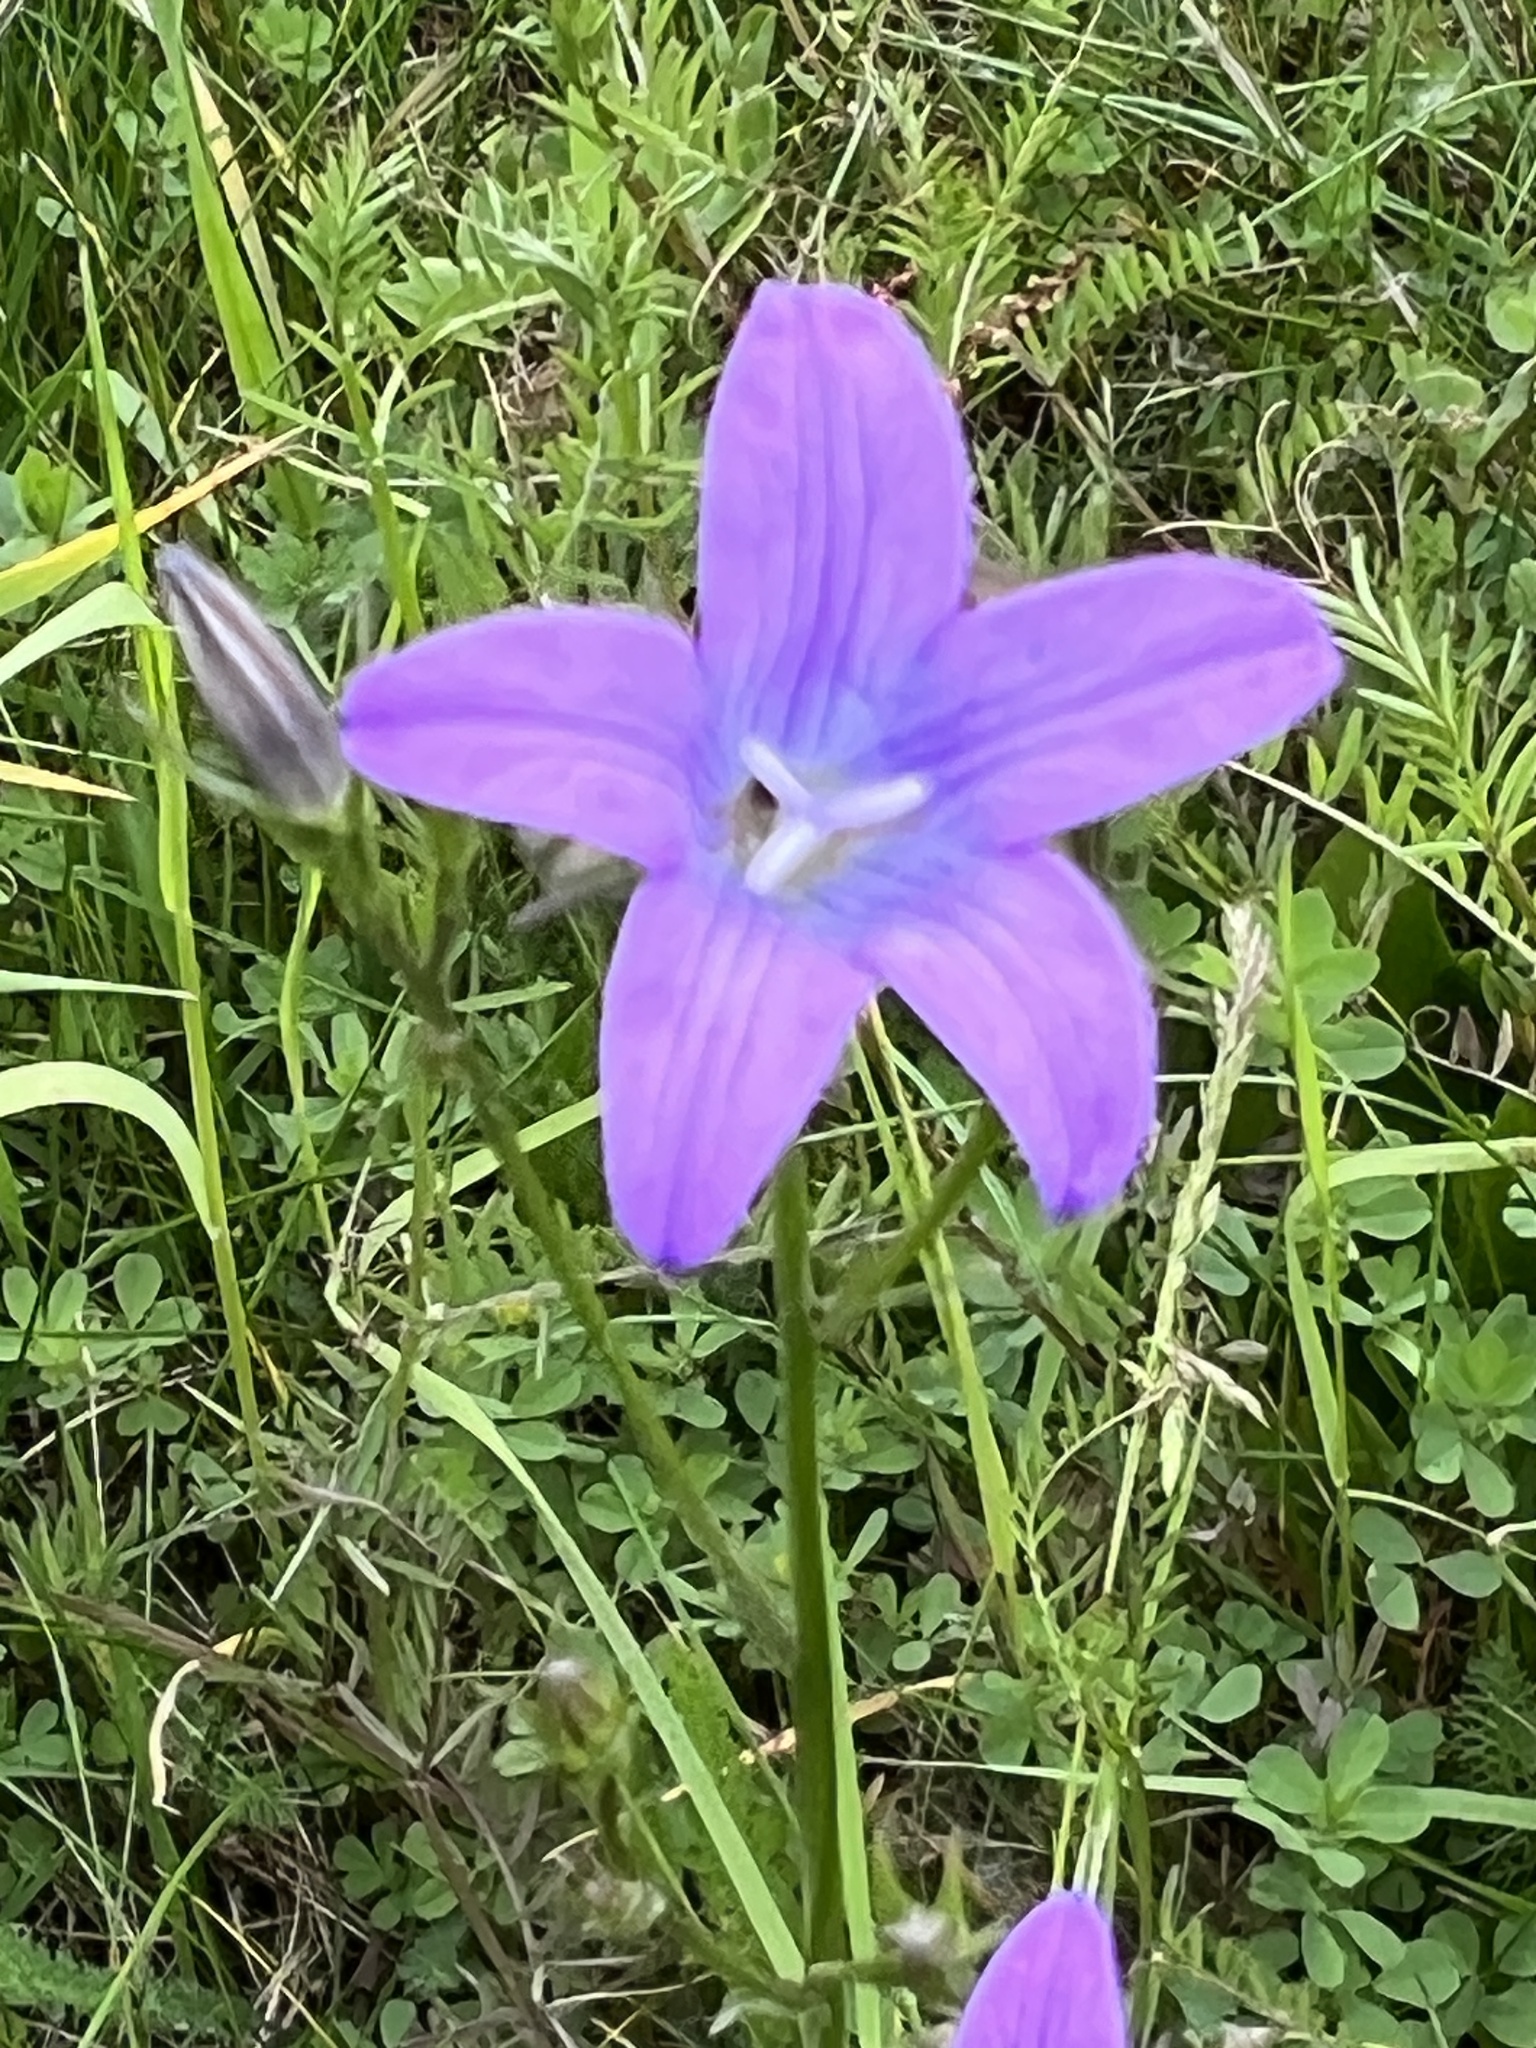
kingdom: Plantae
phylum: Tracheophyta
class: Magnoliopsida
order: Asterales
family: Campanulaceae
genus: Campanula
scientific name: Campanula patula
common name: Spreading bellflower
